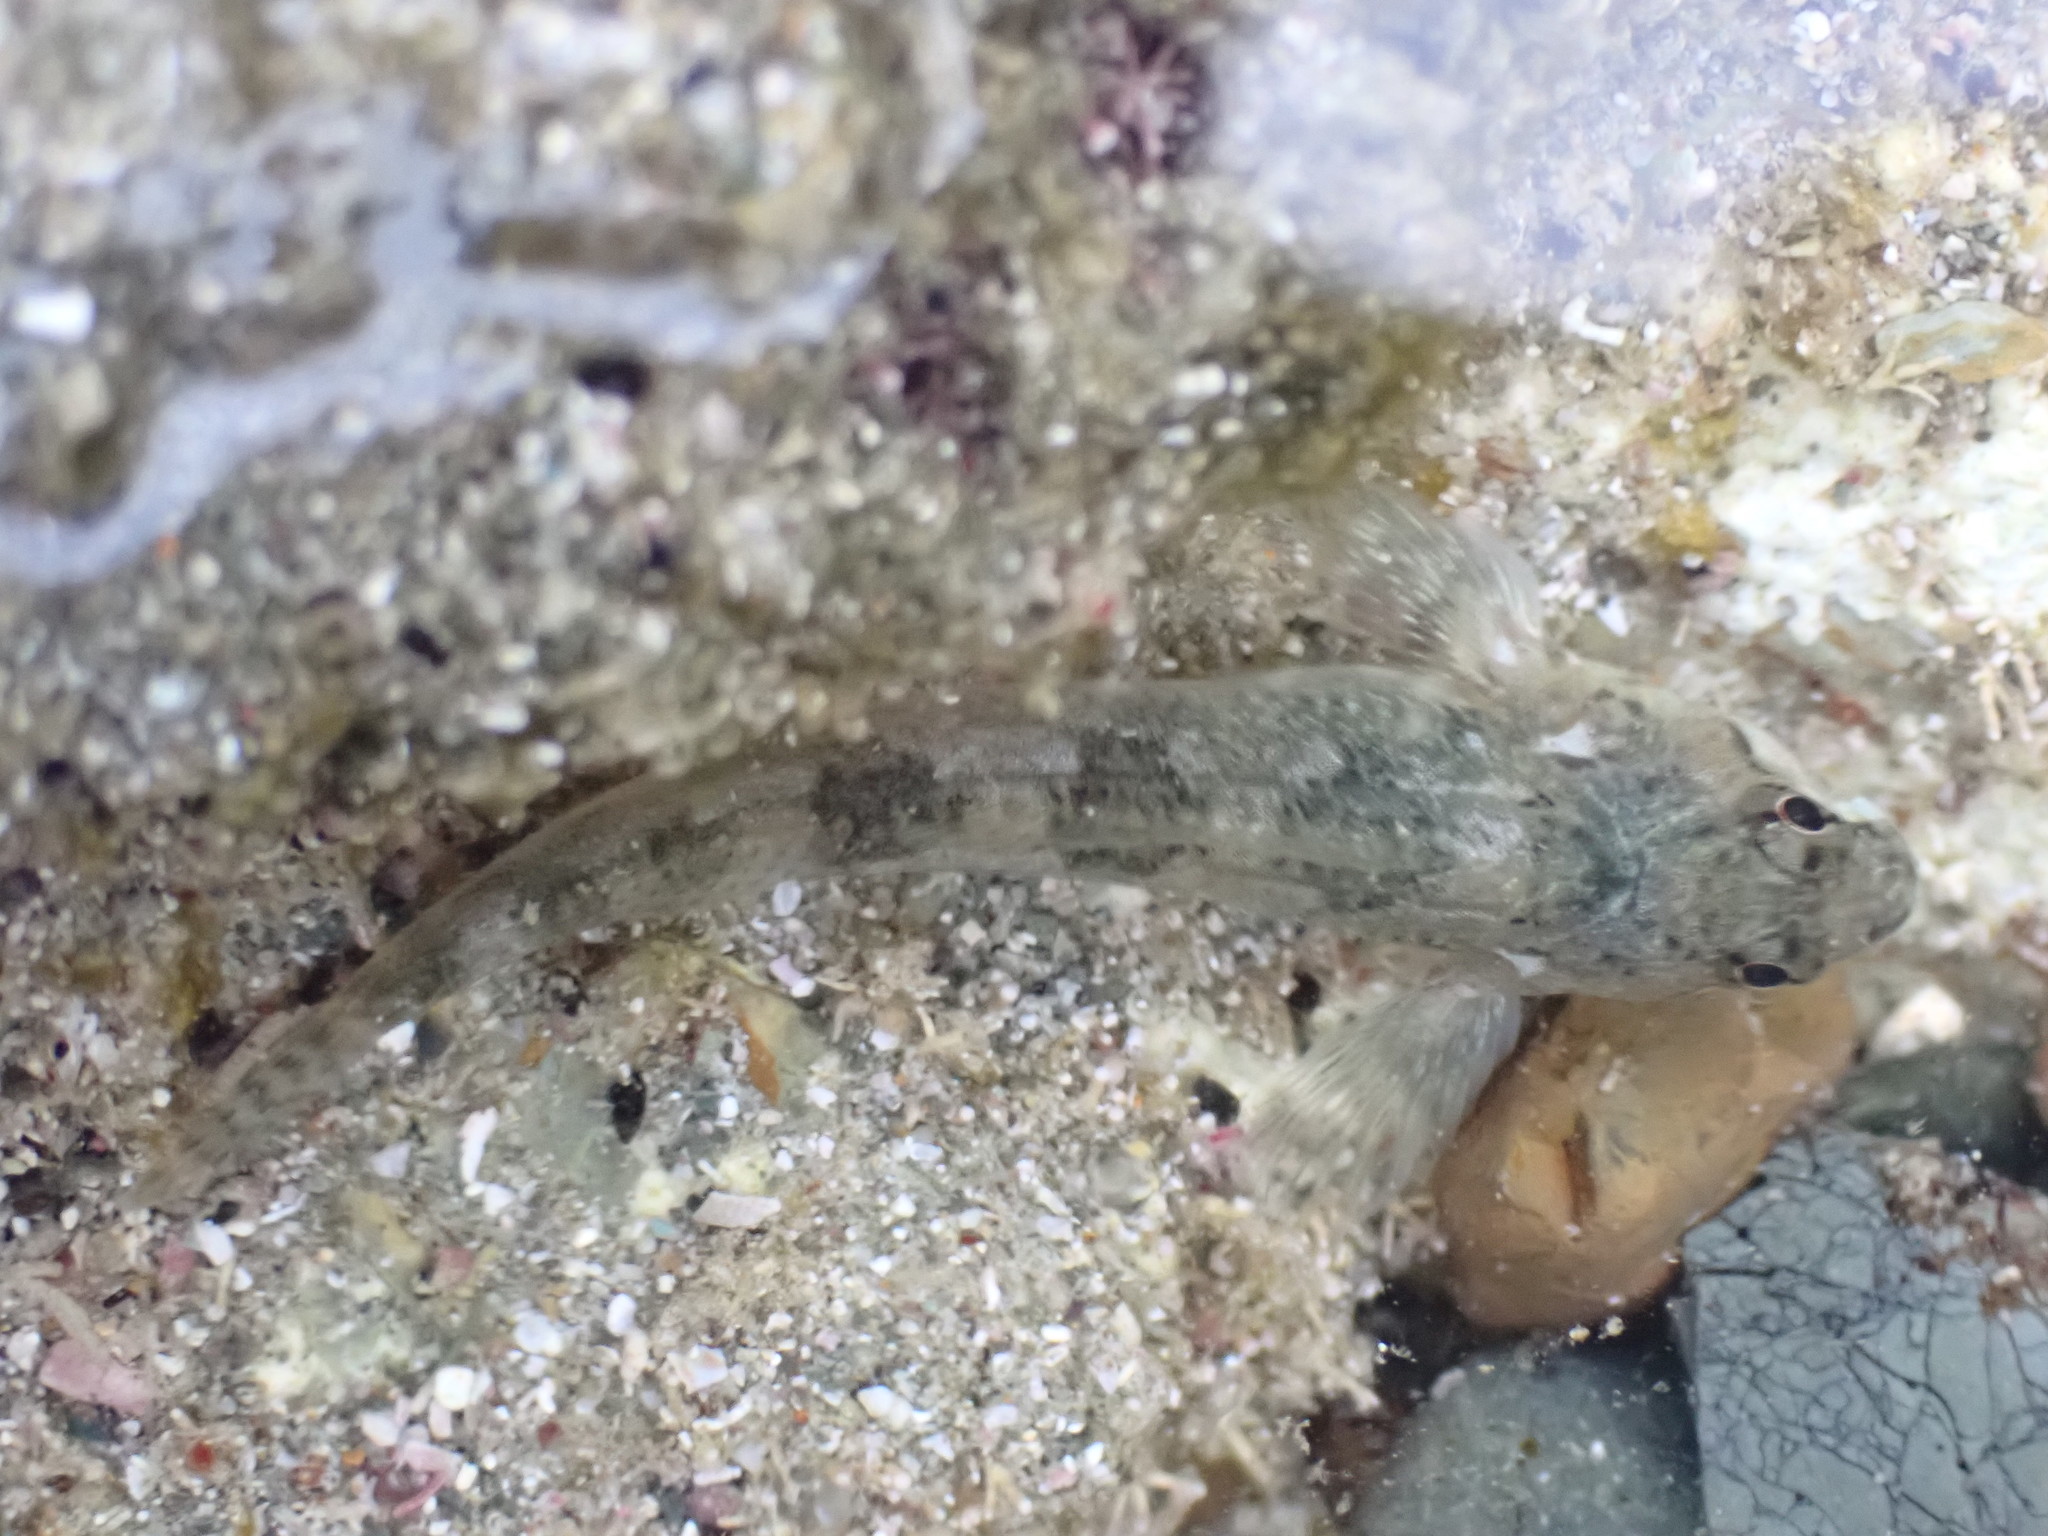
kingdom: Animalia
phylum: Chordata
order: Perciformes
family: Tripterygiidae
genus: Bellapiscis
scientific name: Bellapiscis medius
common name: Twister
